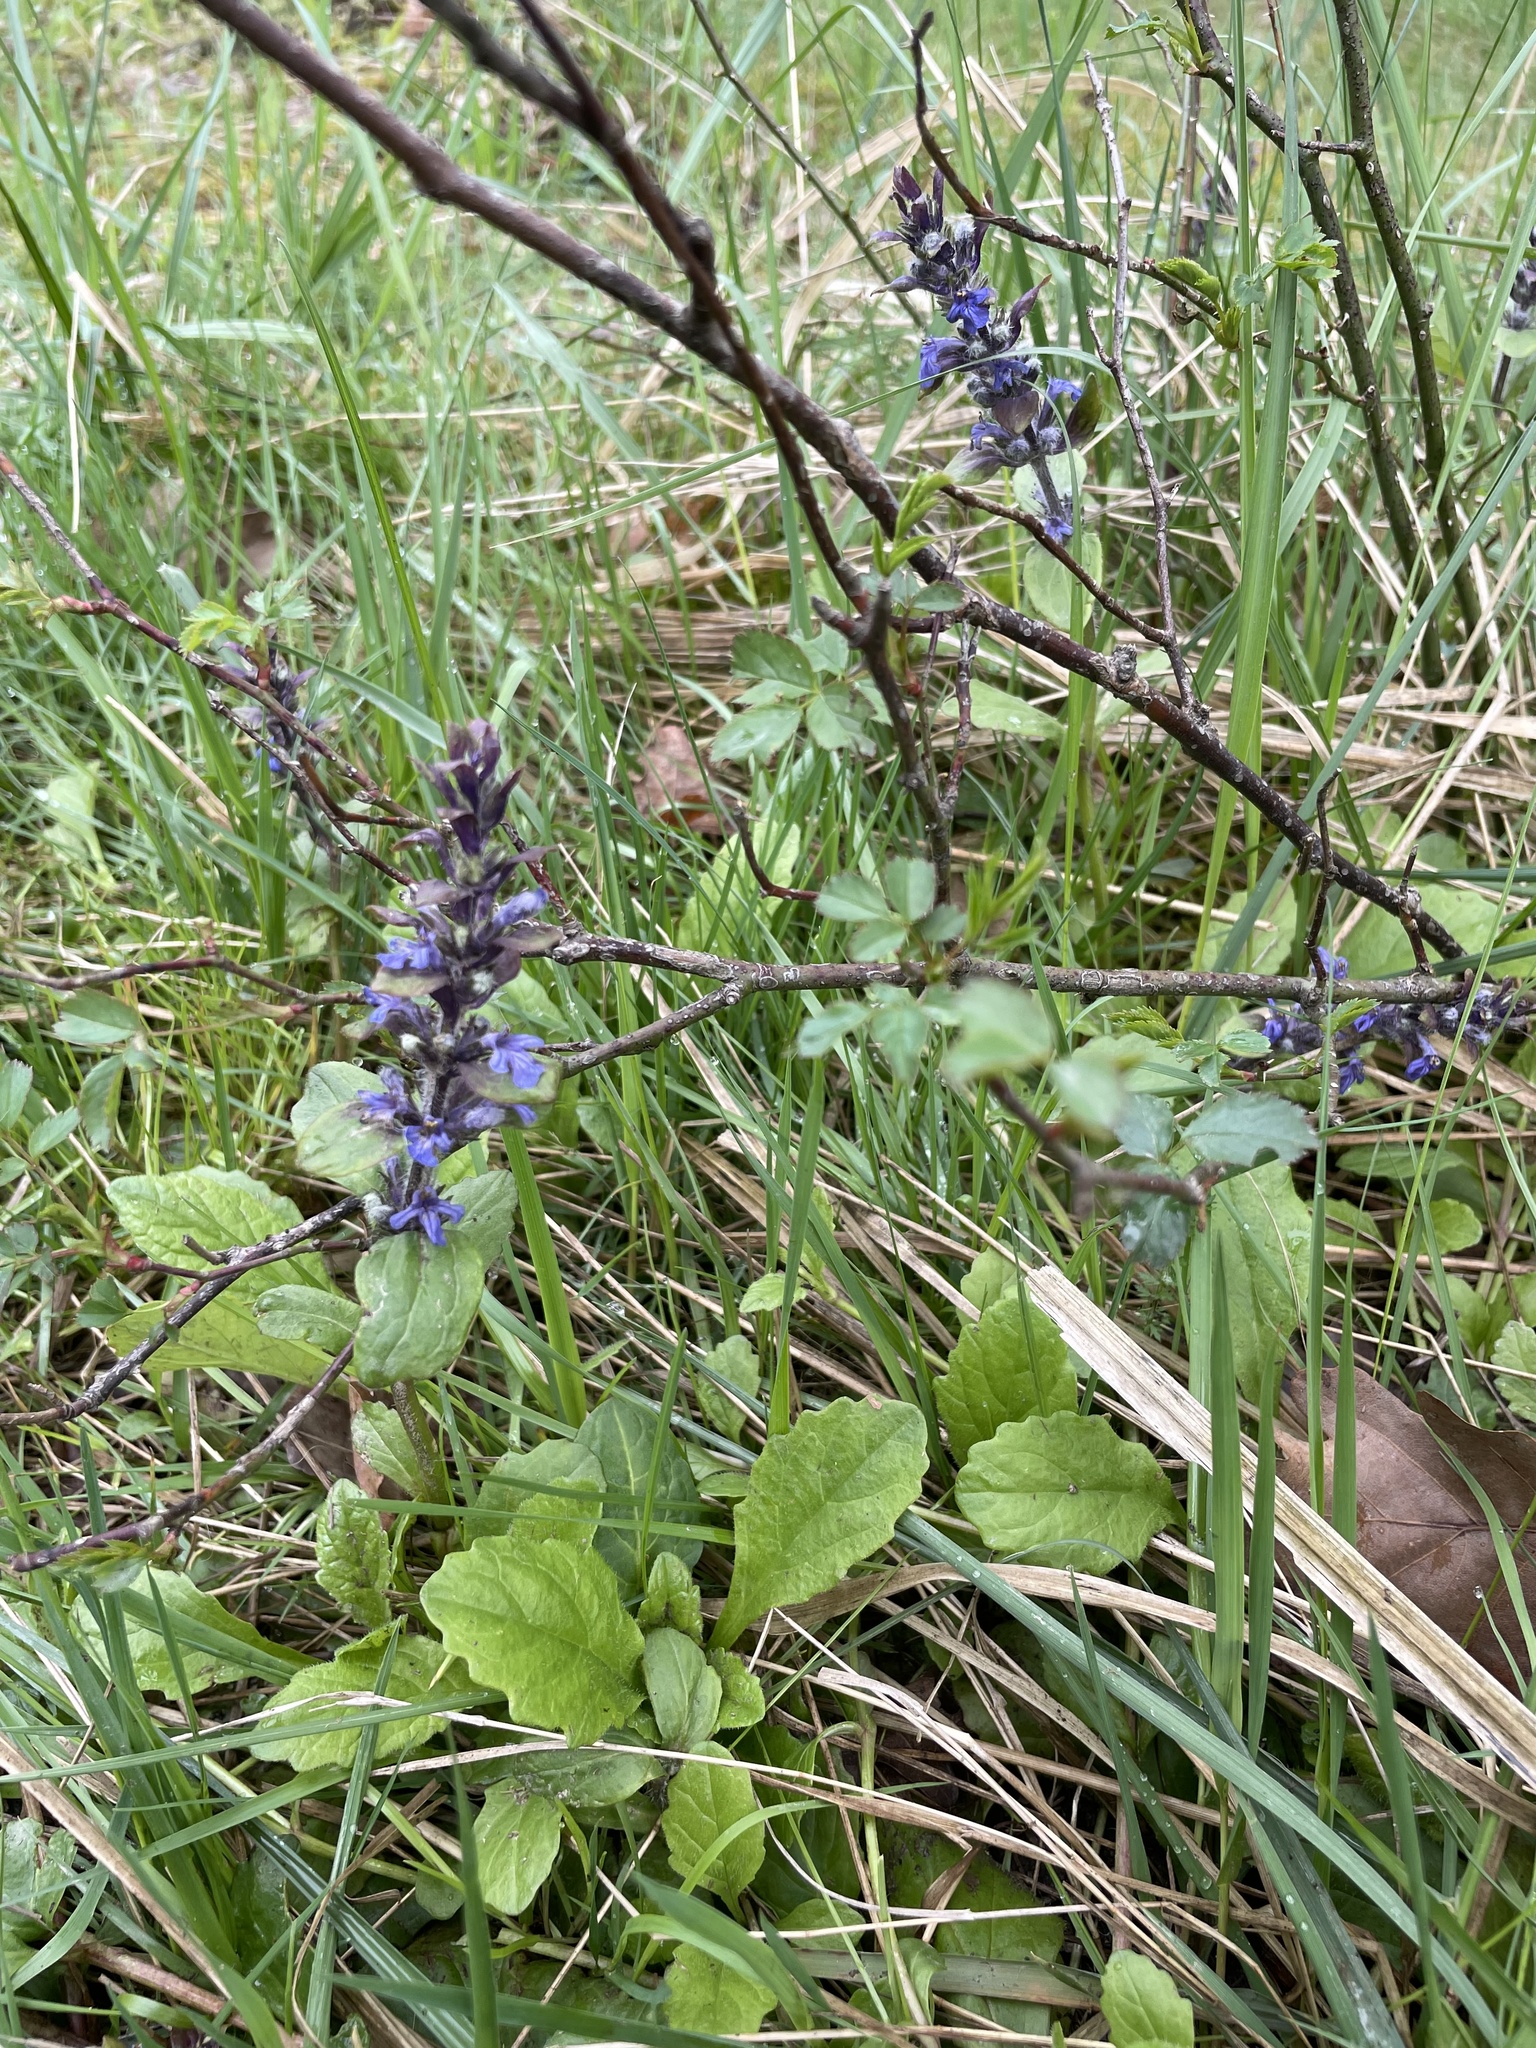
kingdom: Plantae
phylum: Tracheophyta
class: Magnoliopsida
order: Lamiales
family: Lamiaceae
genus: Ajuga
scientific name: Ajuga reptans
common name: Bugle
